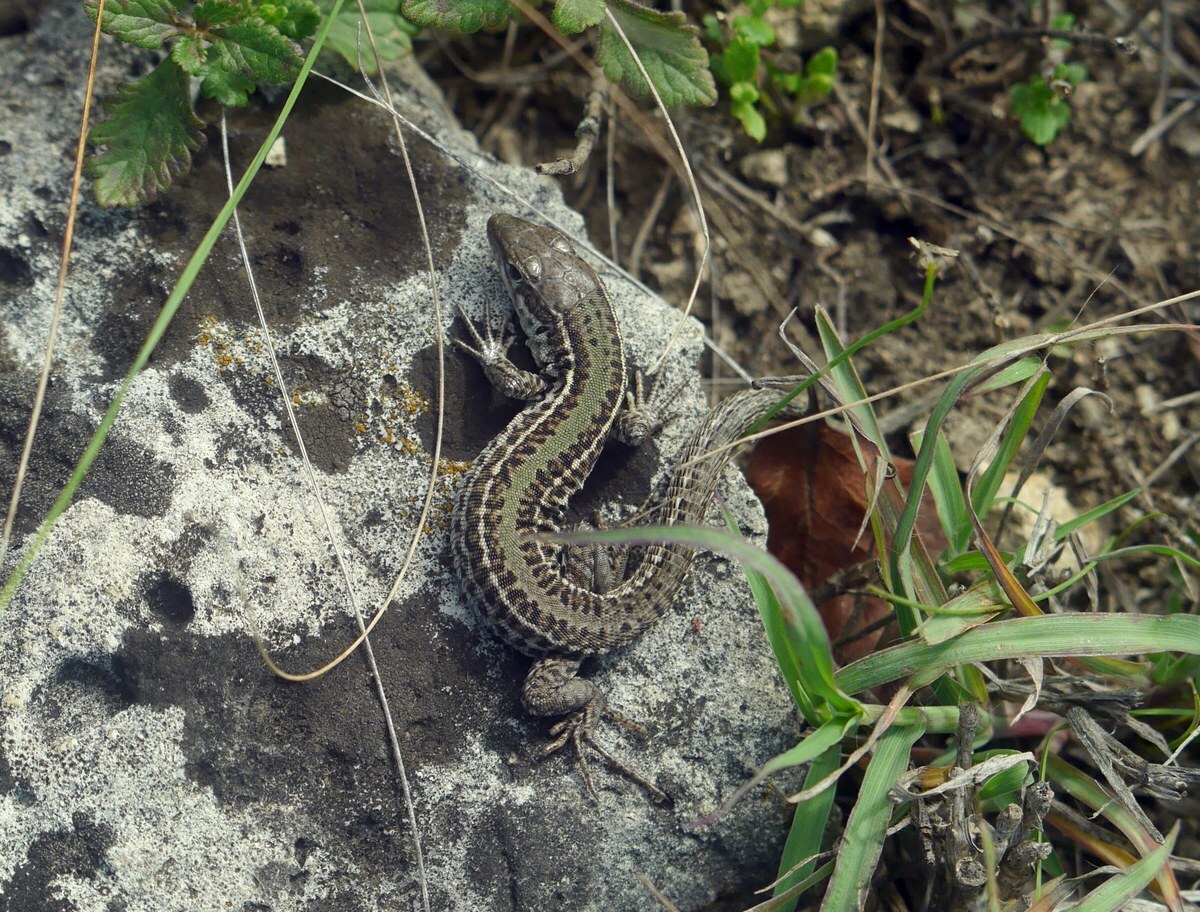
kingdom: Animalia
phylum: Chordata
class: Squamata
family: Lacertidae
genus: Podarcis
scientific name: Podarcis tauricus
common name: Balkan wall lizard
